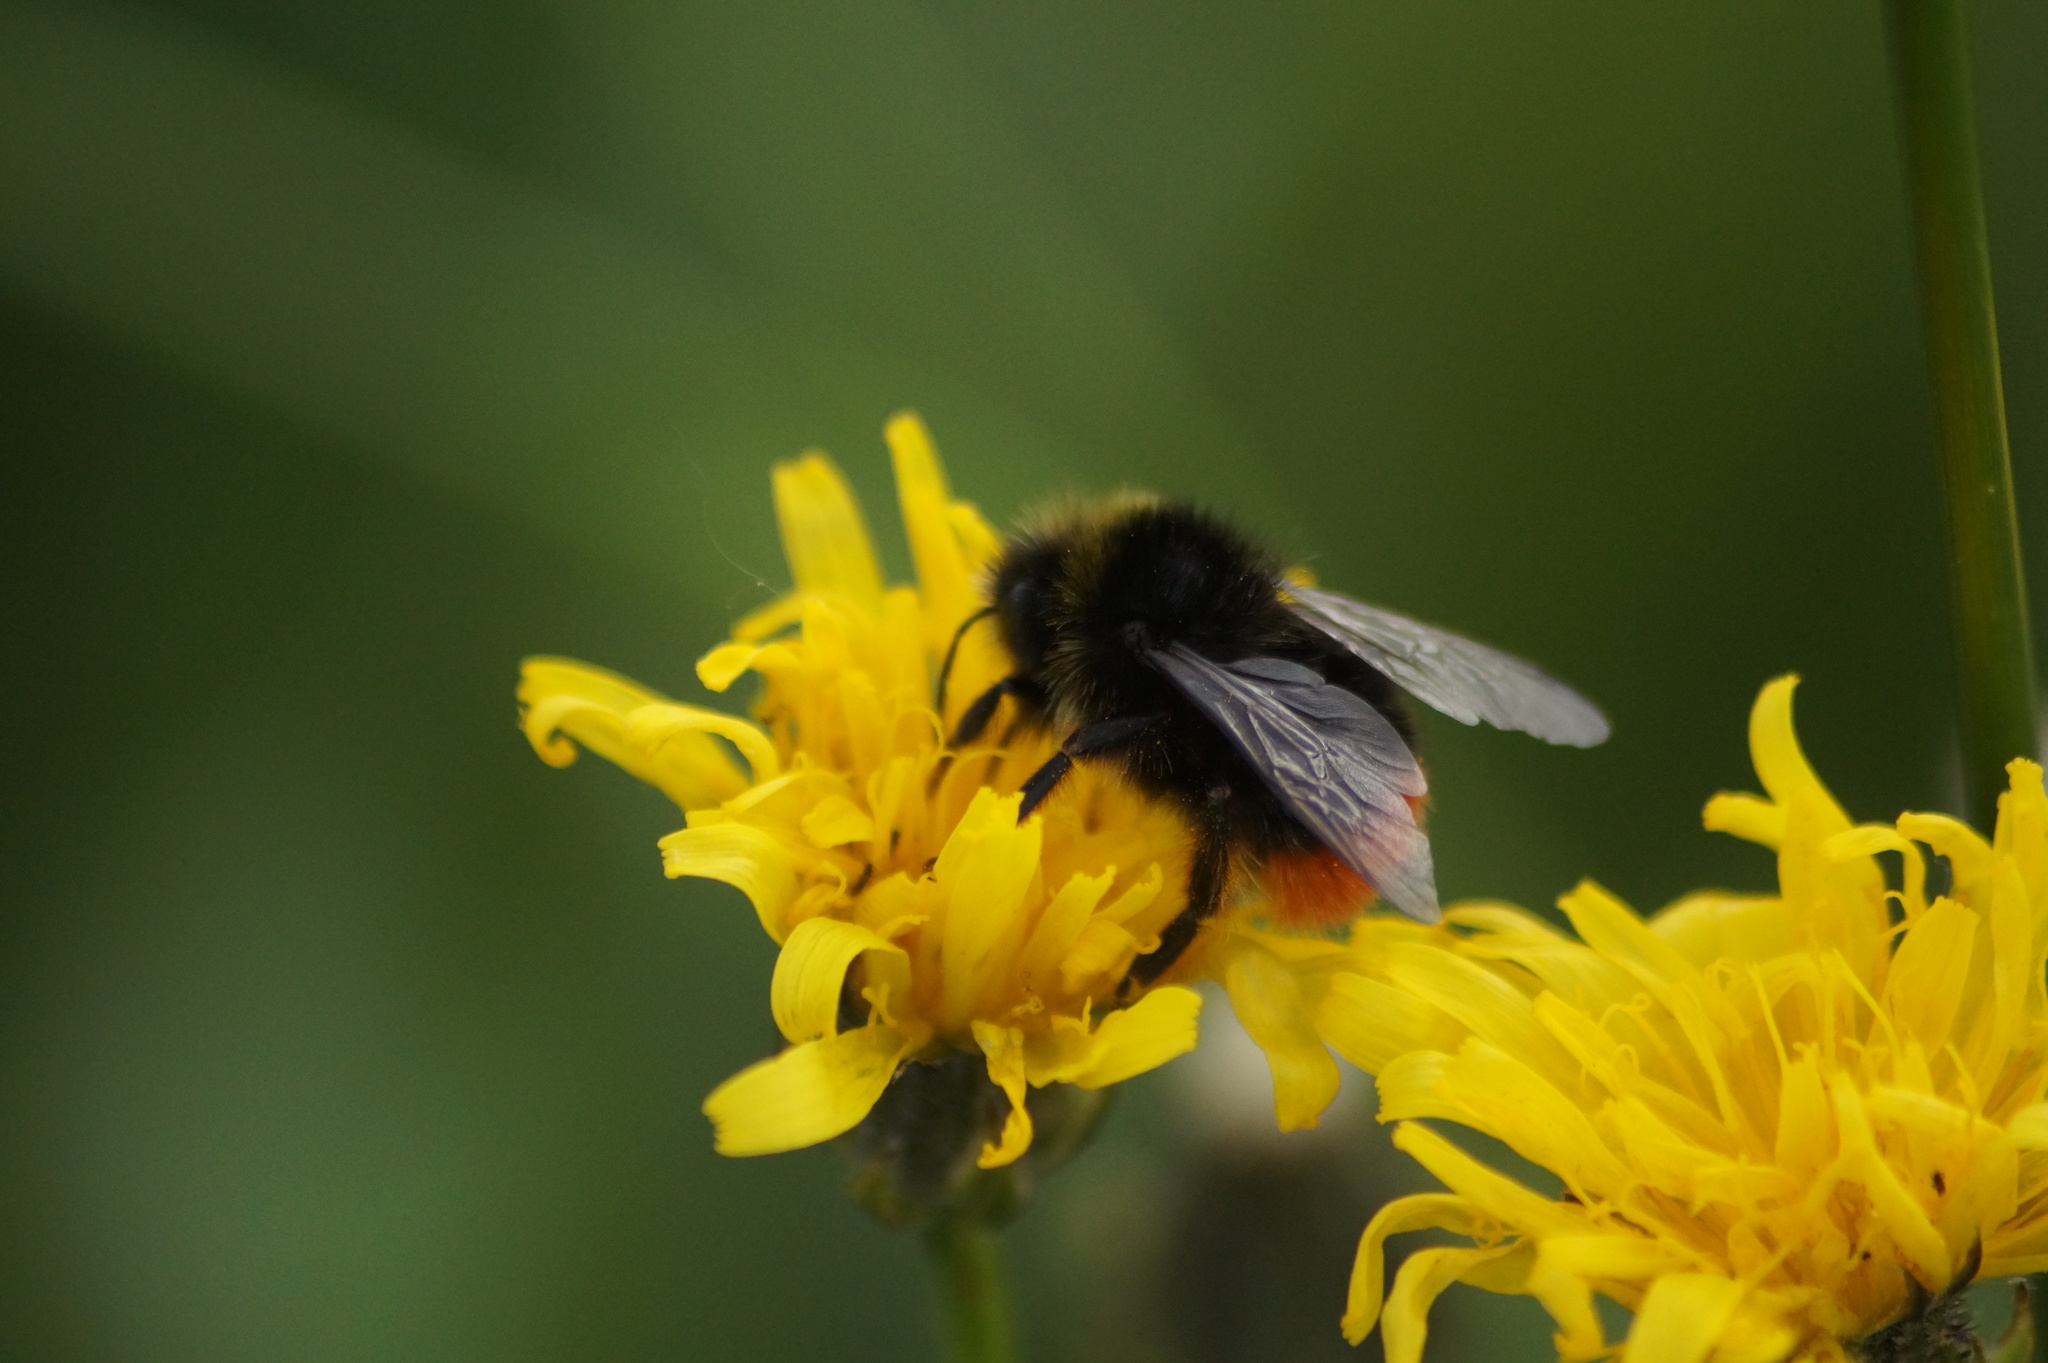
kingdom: Animalia
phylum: Arthropoda
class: Insecta
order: Hymenoptera
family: Apidae
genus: Bombus
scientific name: Bombus lapidarius
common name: Large red-tailed humble-bee
